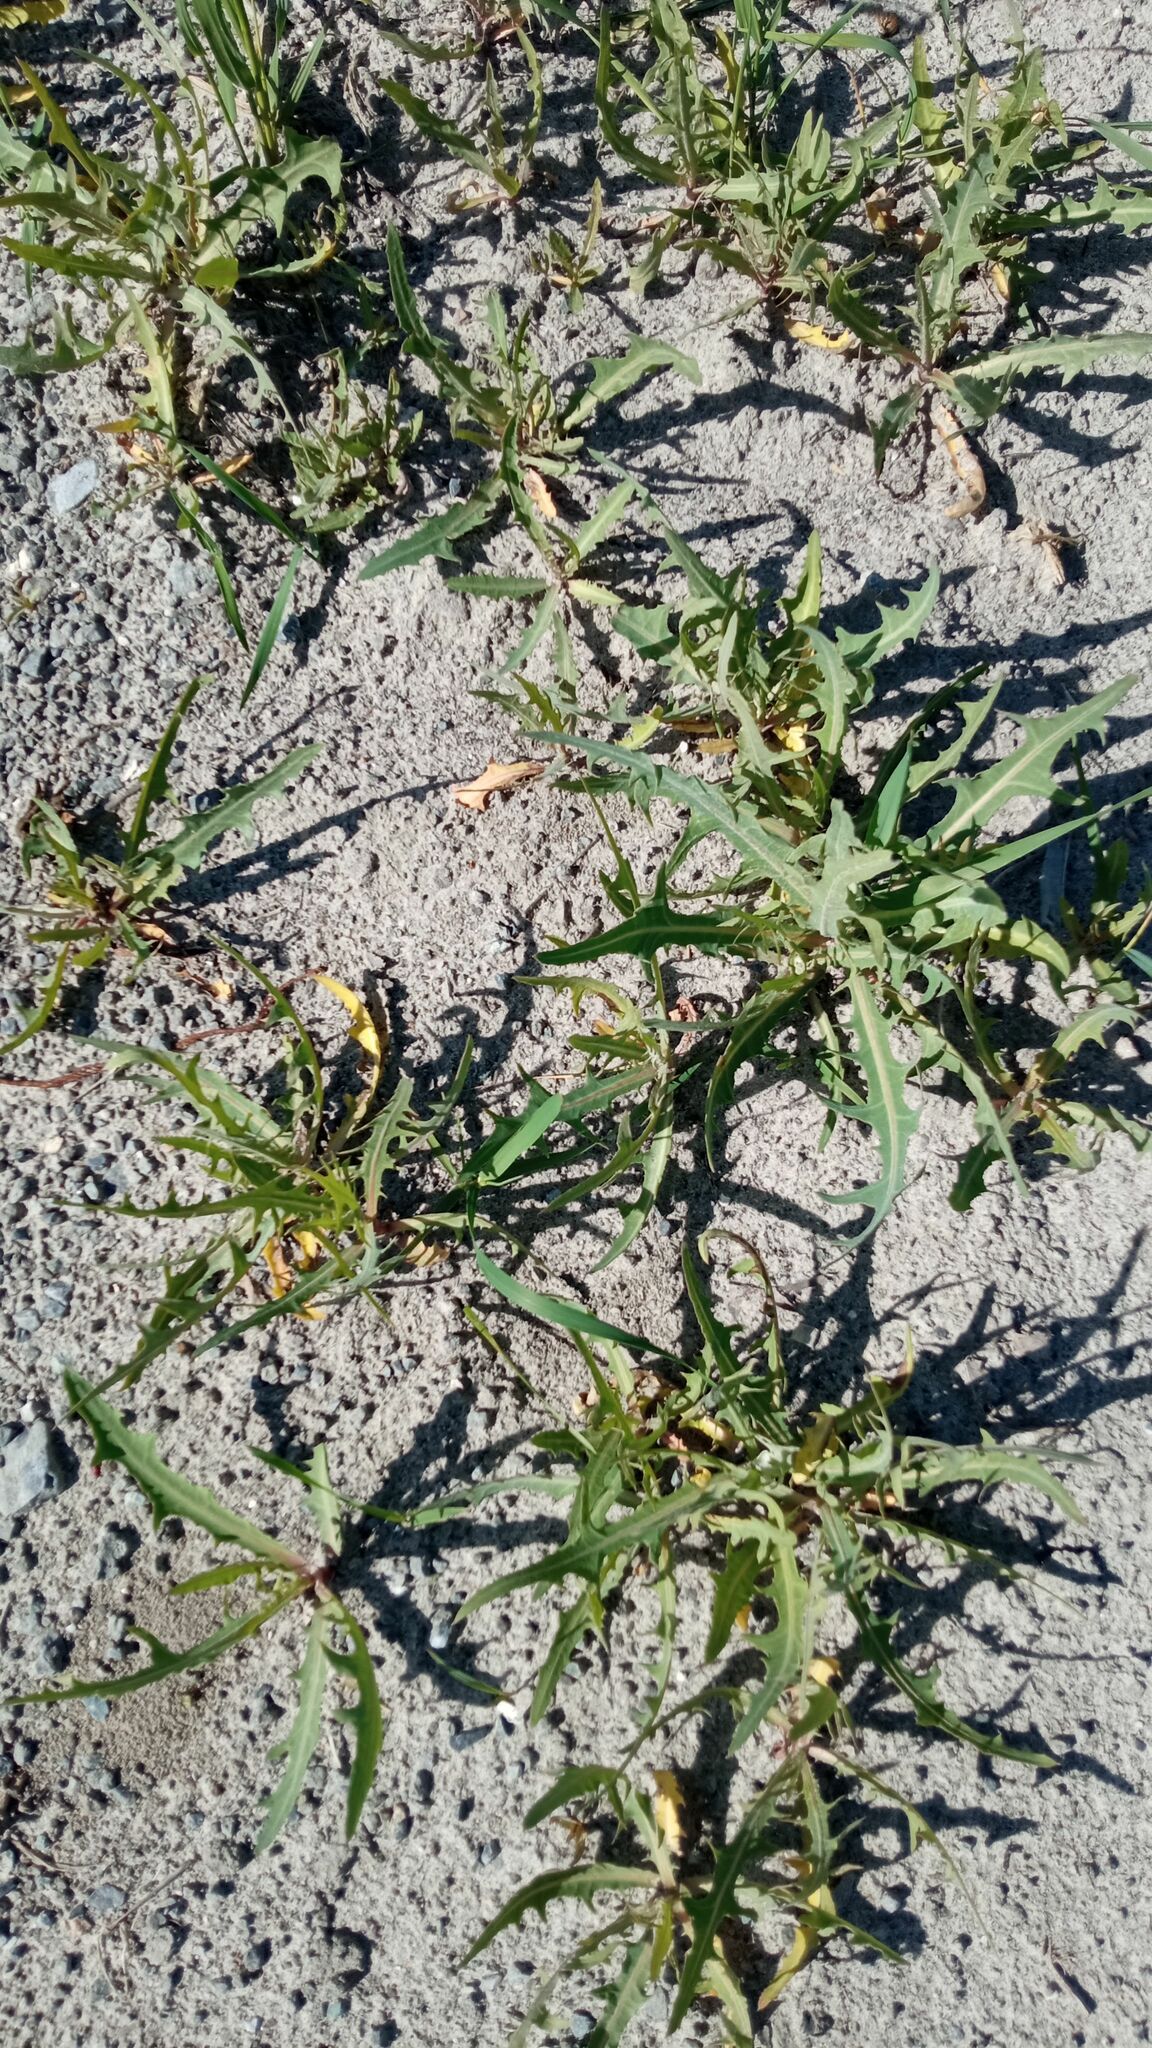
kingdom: Plantae
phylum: Tracheophyta
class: Magnoliopsida
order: Asterales
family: Asteraceae
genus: Lactuca
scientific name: Lactuca tatarica
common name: Blue lettuce
